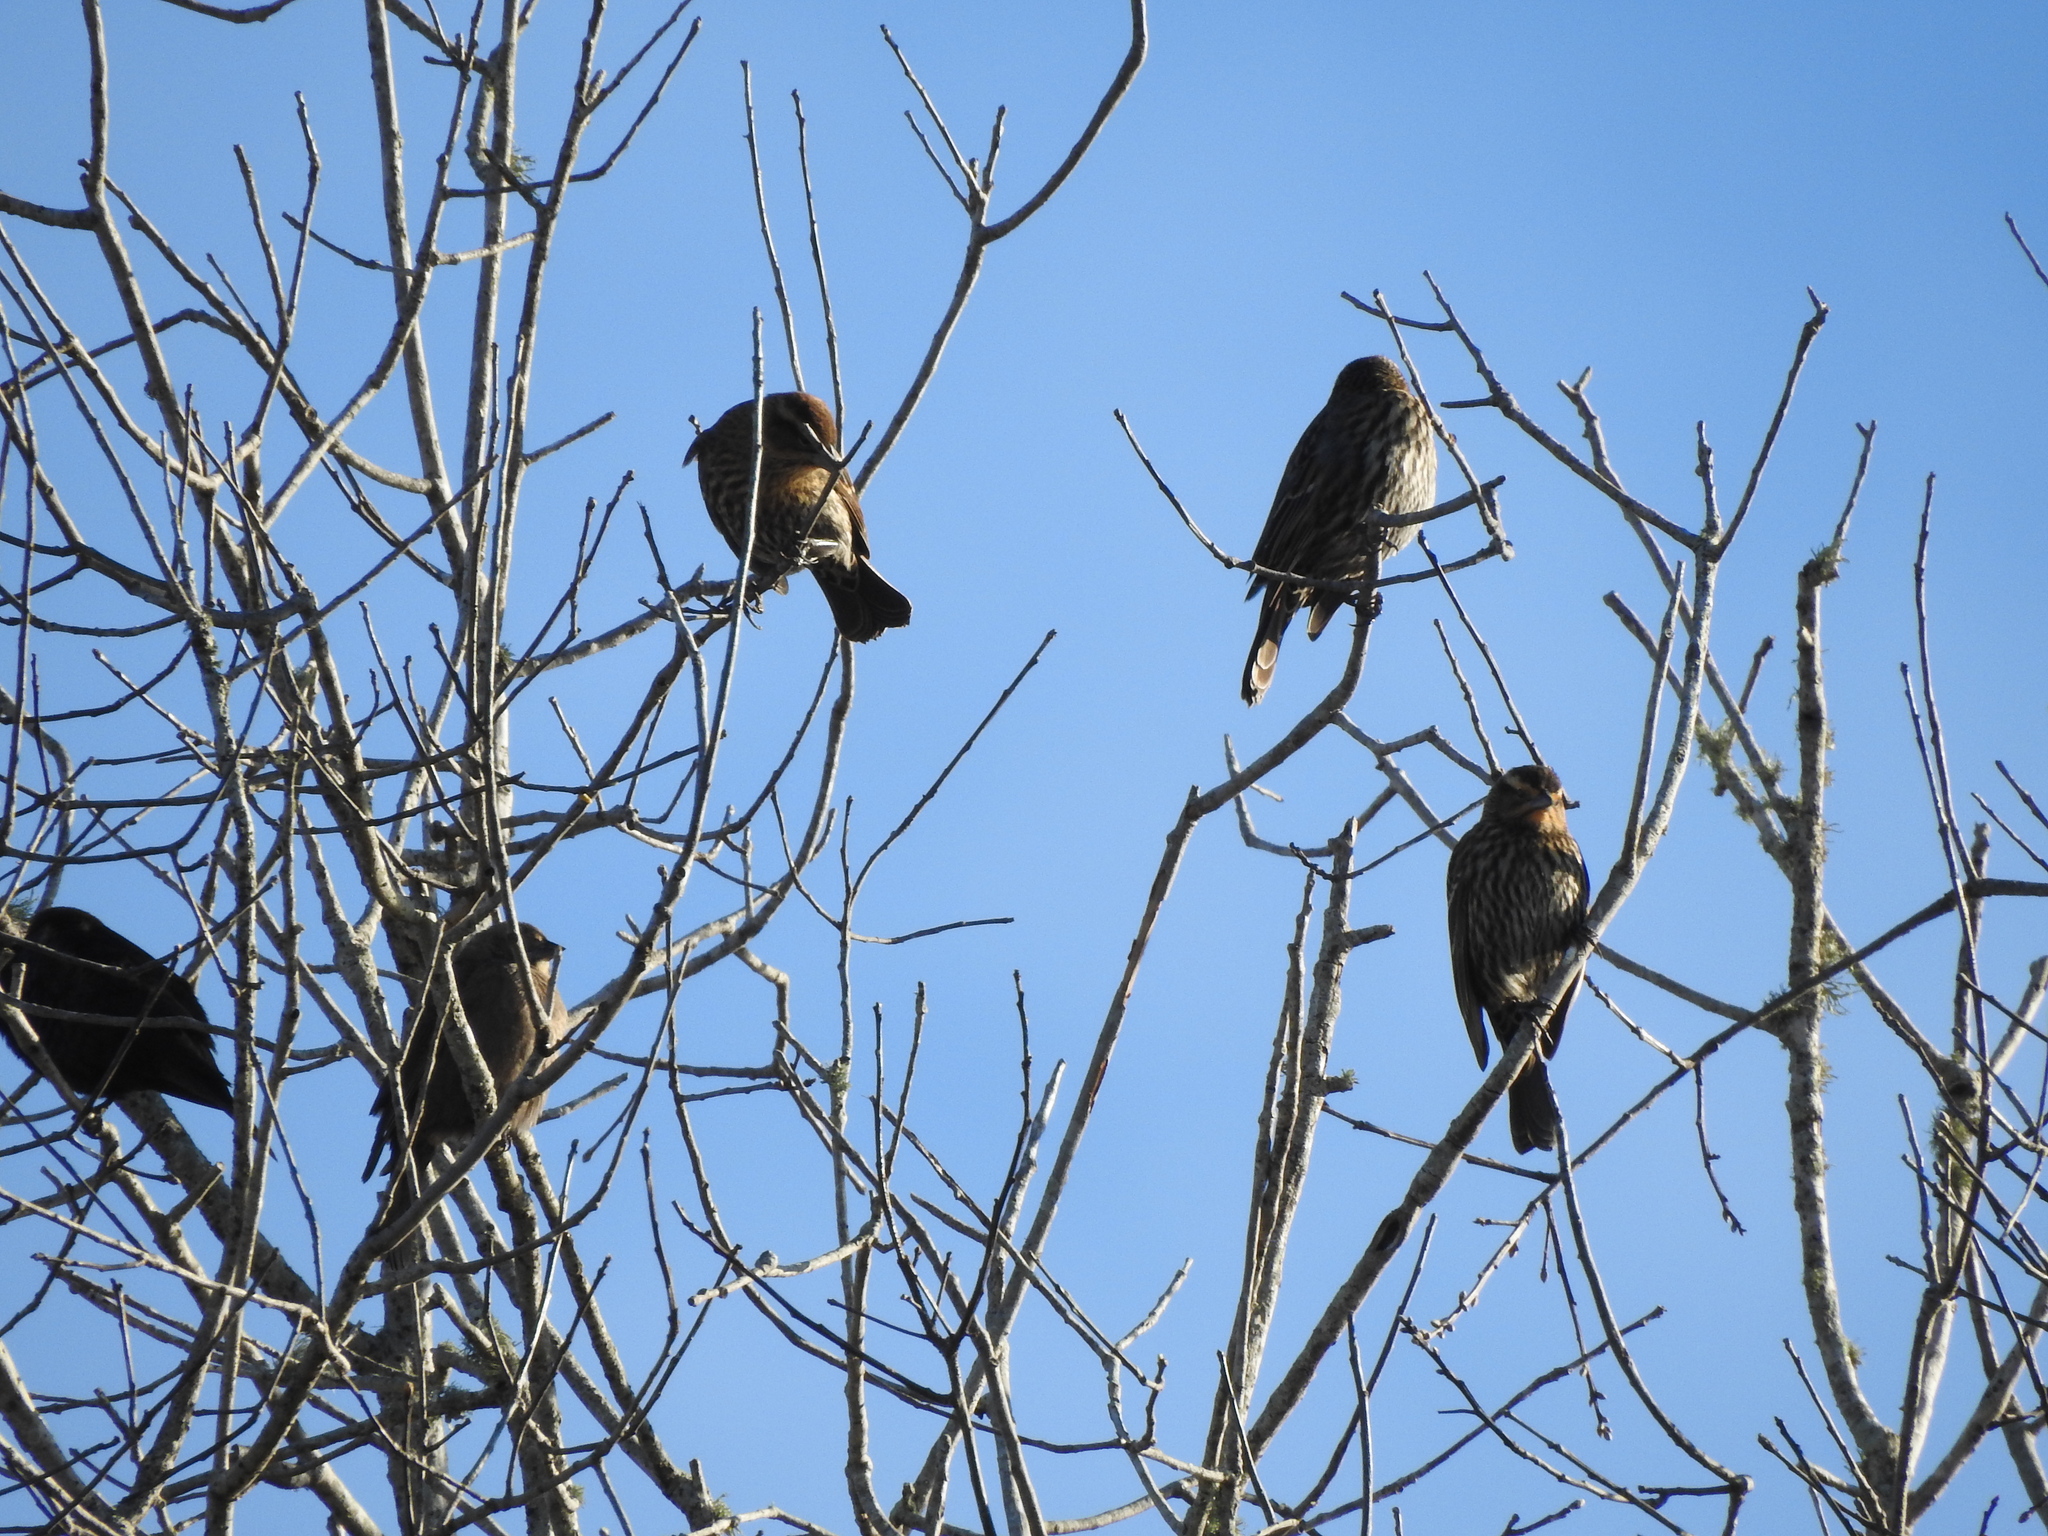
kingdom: Animalia
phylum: Chordata
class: Aves
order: Passeriformes
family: Icteridae
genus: Agelaius
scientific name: Agelaius phoeniceus
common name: Red-winged blackbird
